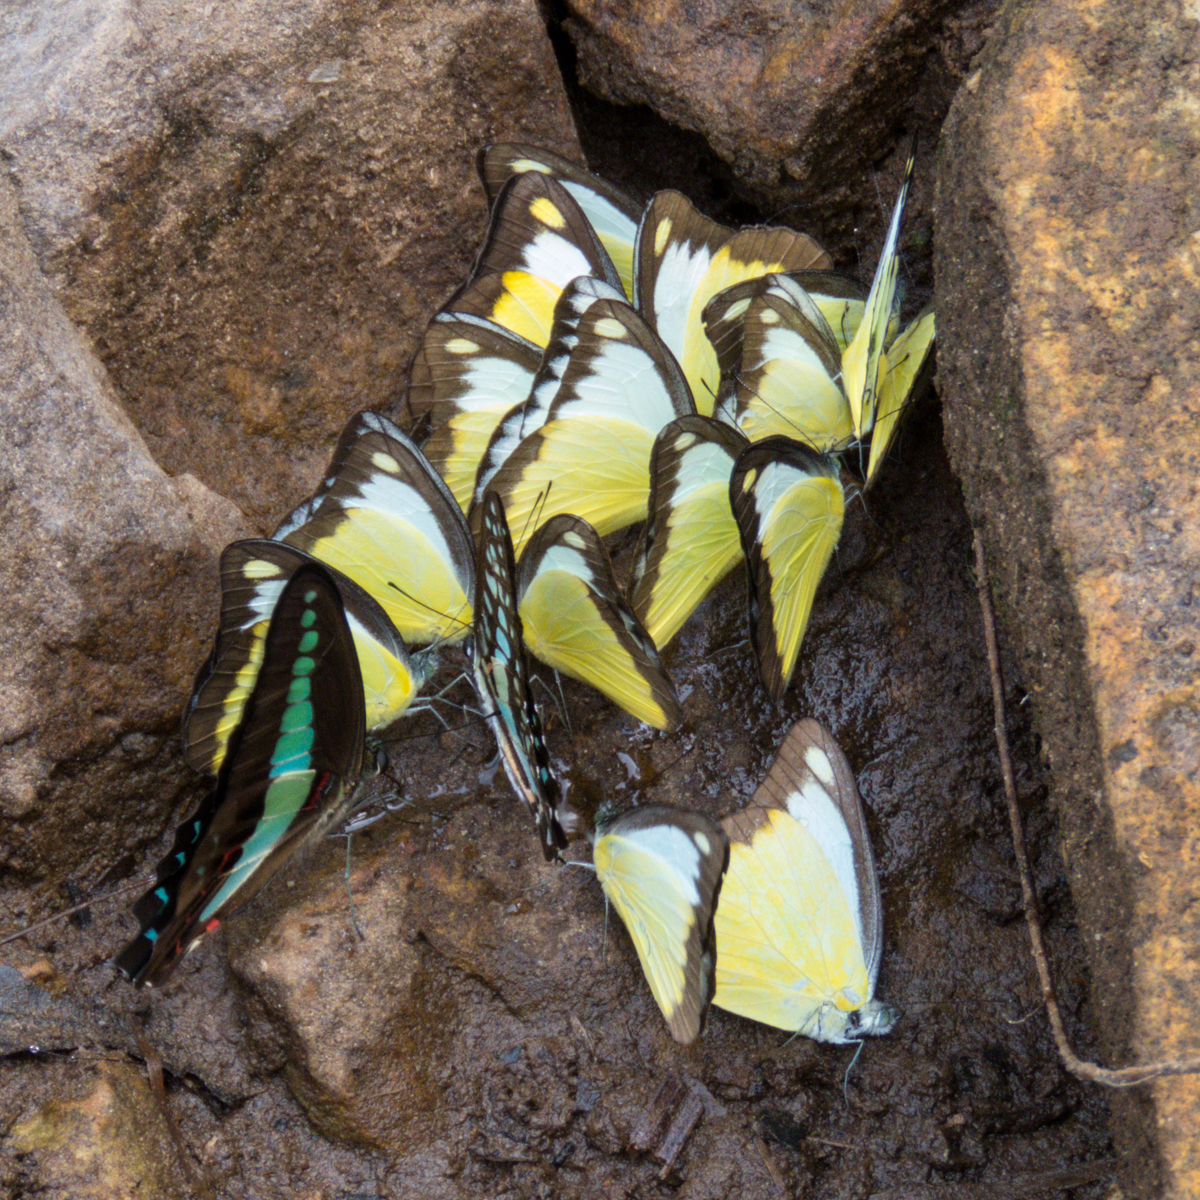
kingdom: Fungi
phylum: Ascomycota
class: Sordariomycetes
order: Microascales
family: Microascaceae
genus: Graphium
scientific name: Graphium sarpedon
